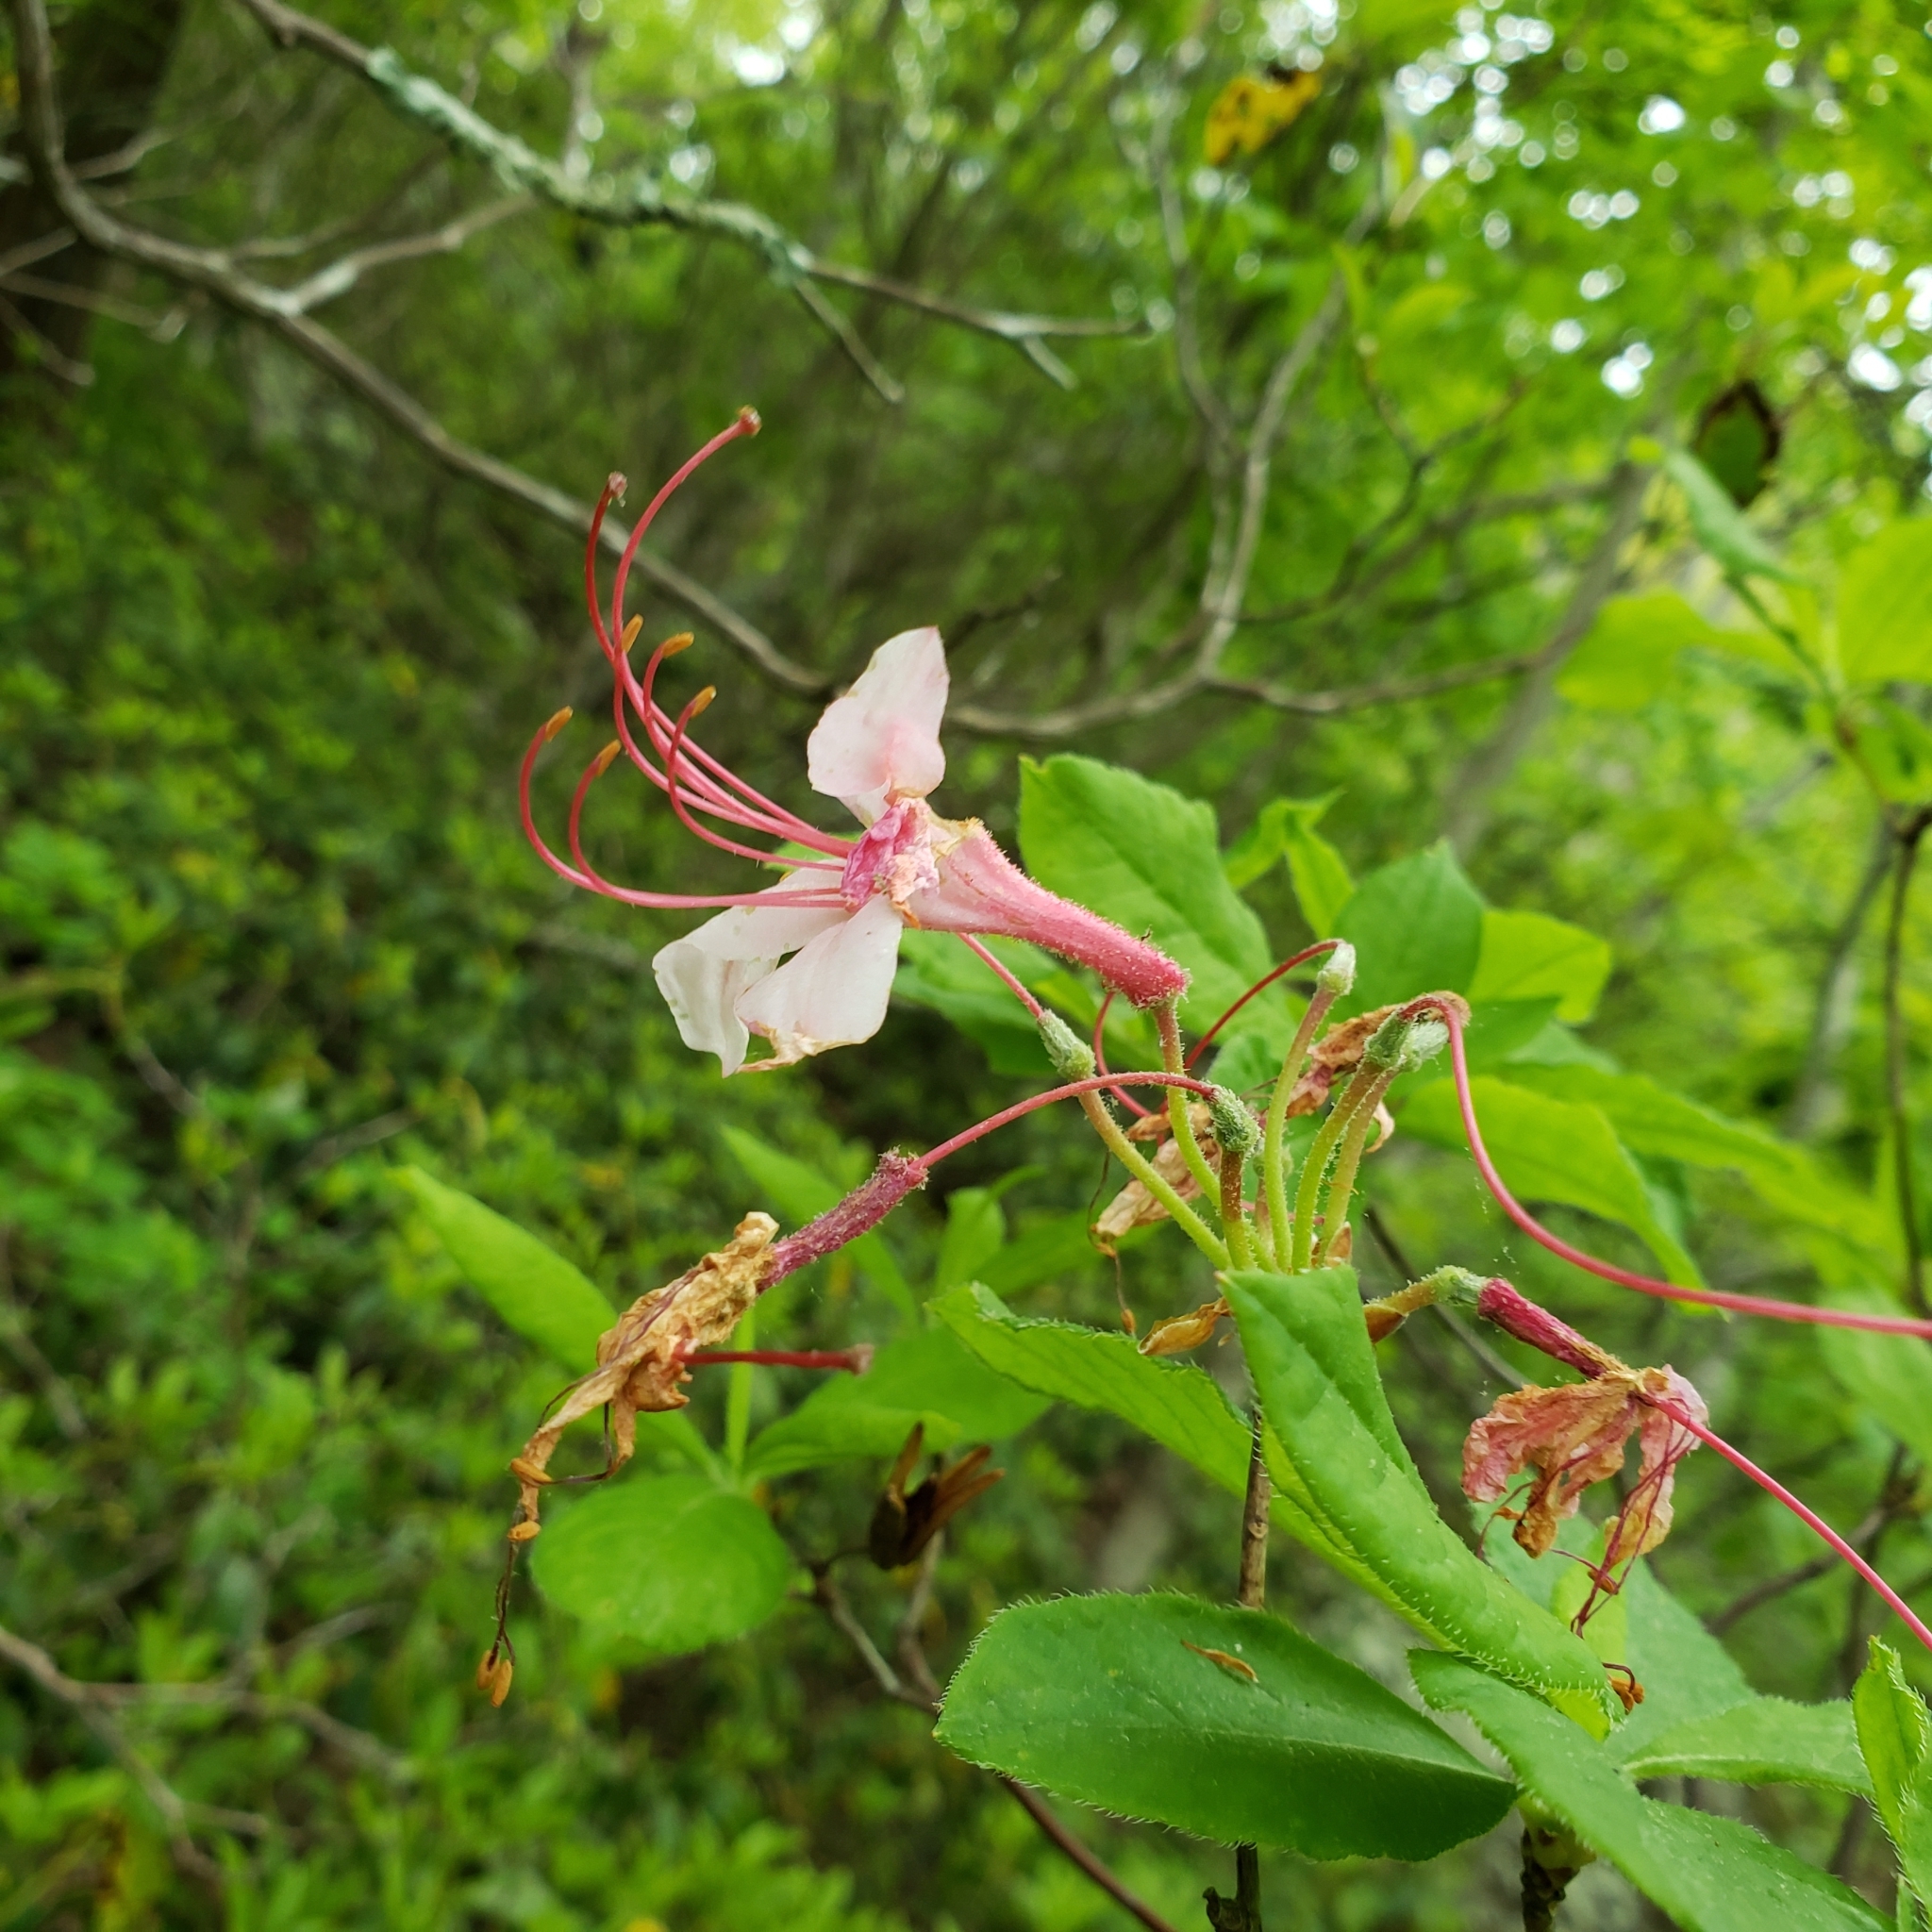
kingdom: Plantae
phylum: Tracheophyta
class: Magnoliopsida
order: Ericales
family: Ericaceae
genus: Rhododendron
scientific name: Rhododendron roseum
